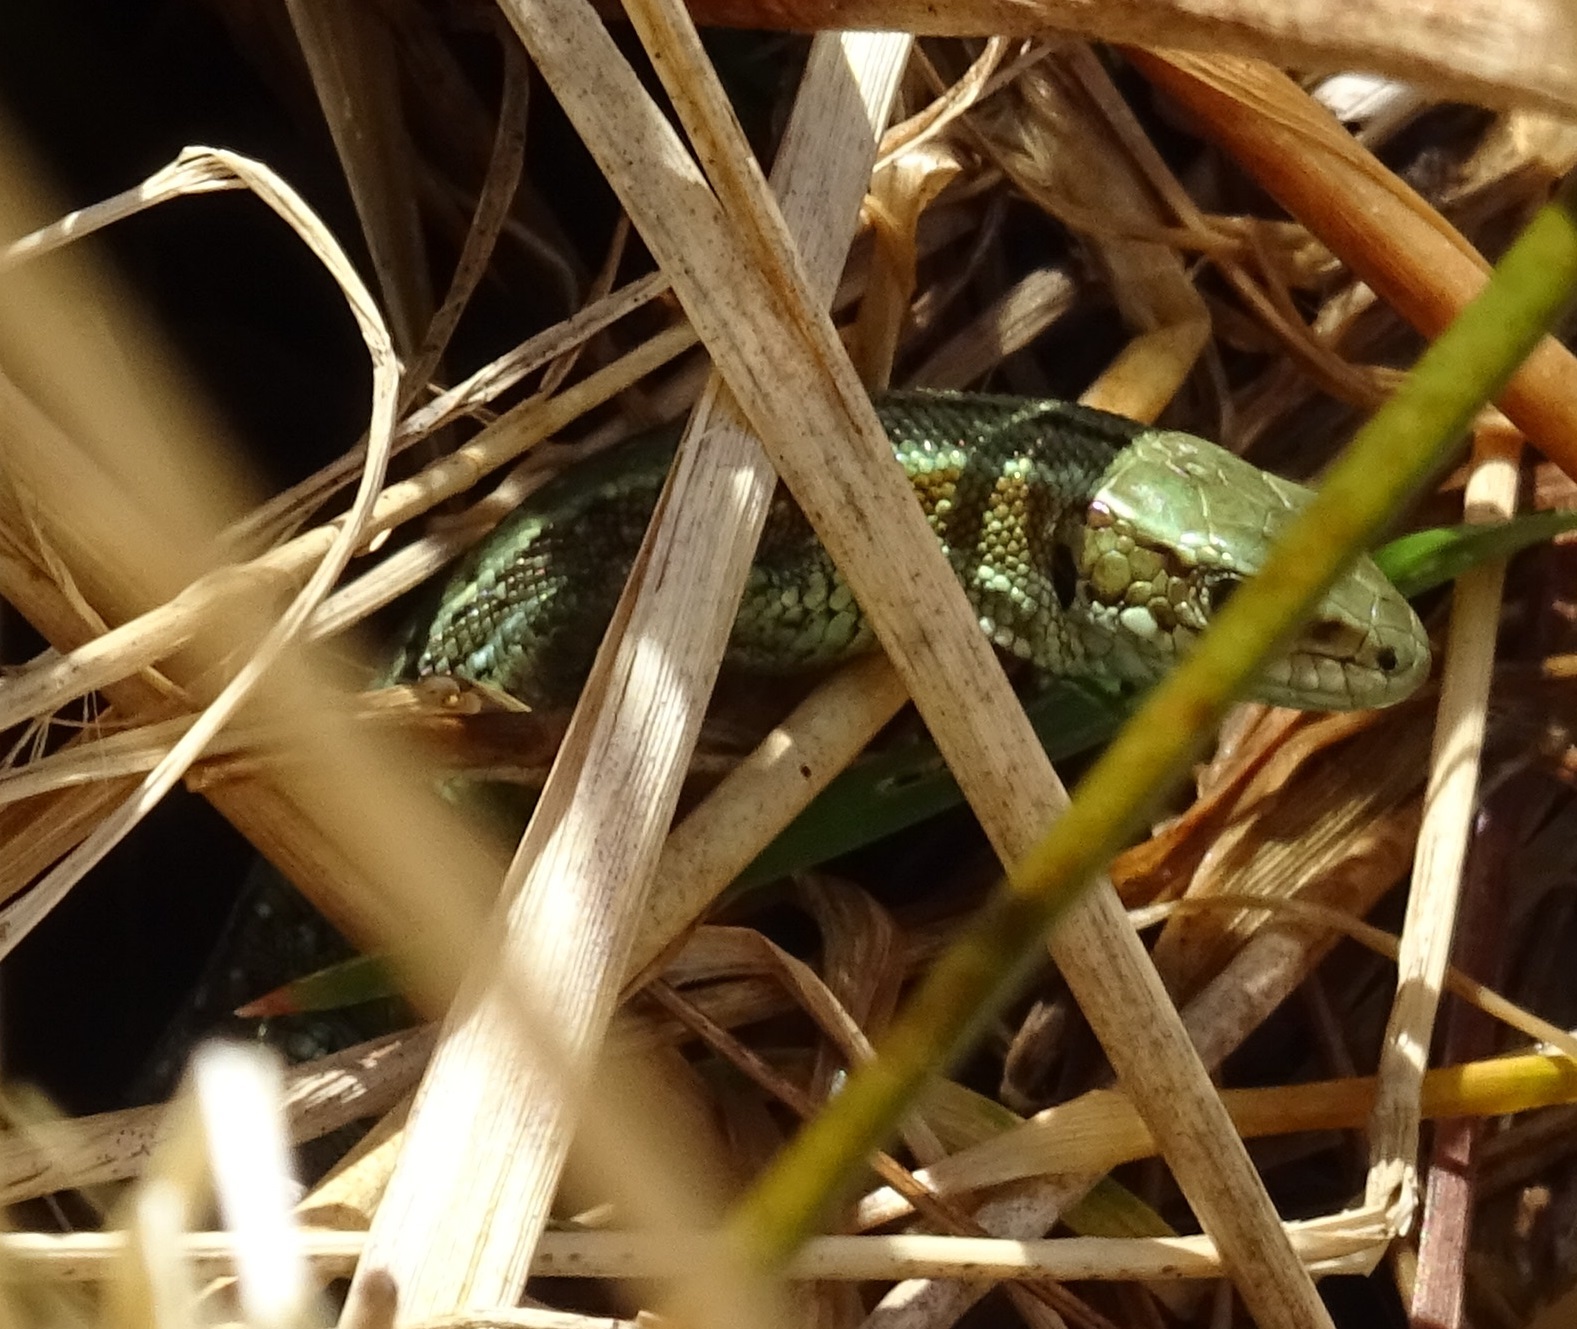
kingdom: Animalia
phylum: Chordata
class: Squamata
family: Lacertidae
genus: Zootoca
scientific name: Zootoca vivipara
